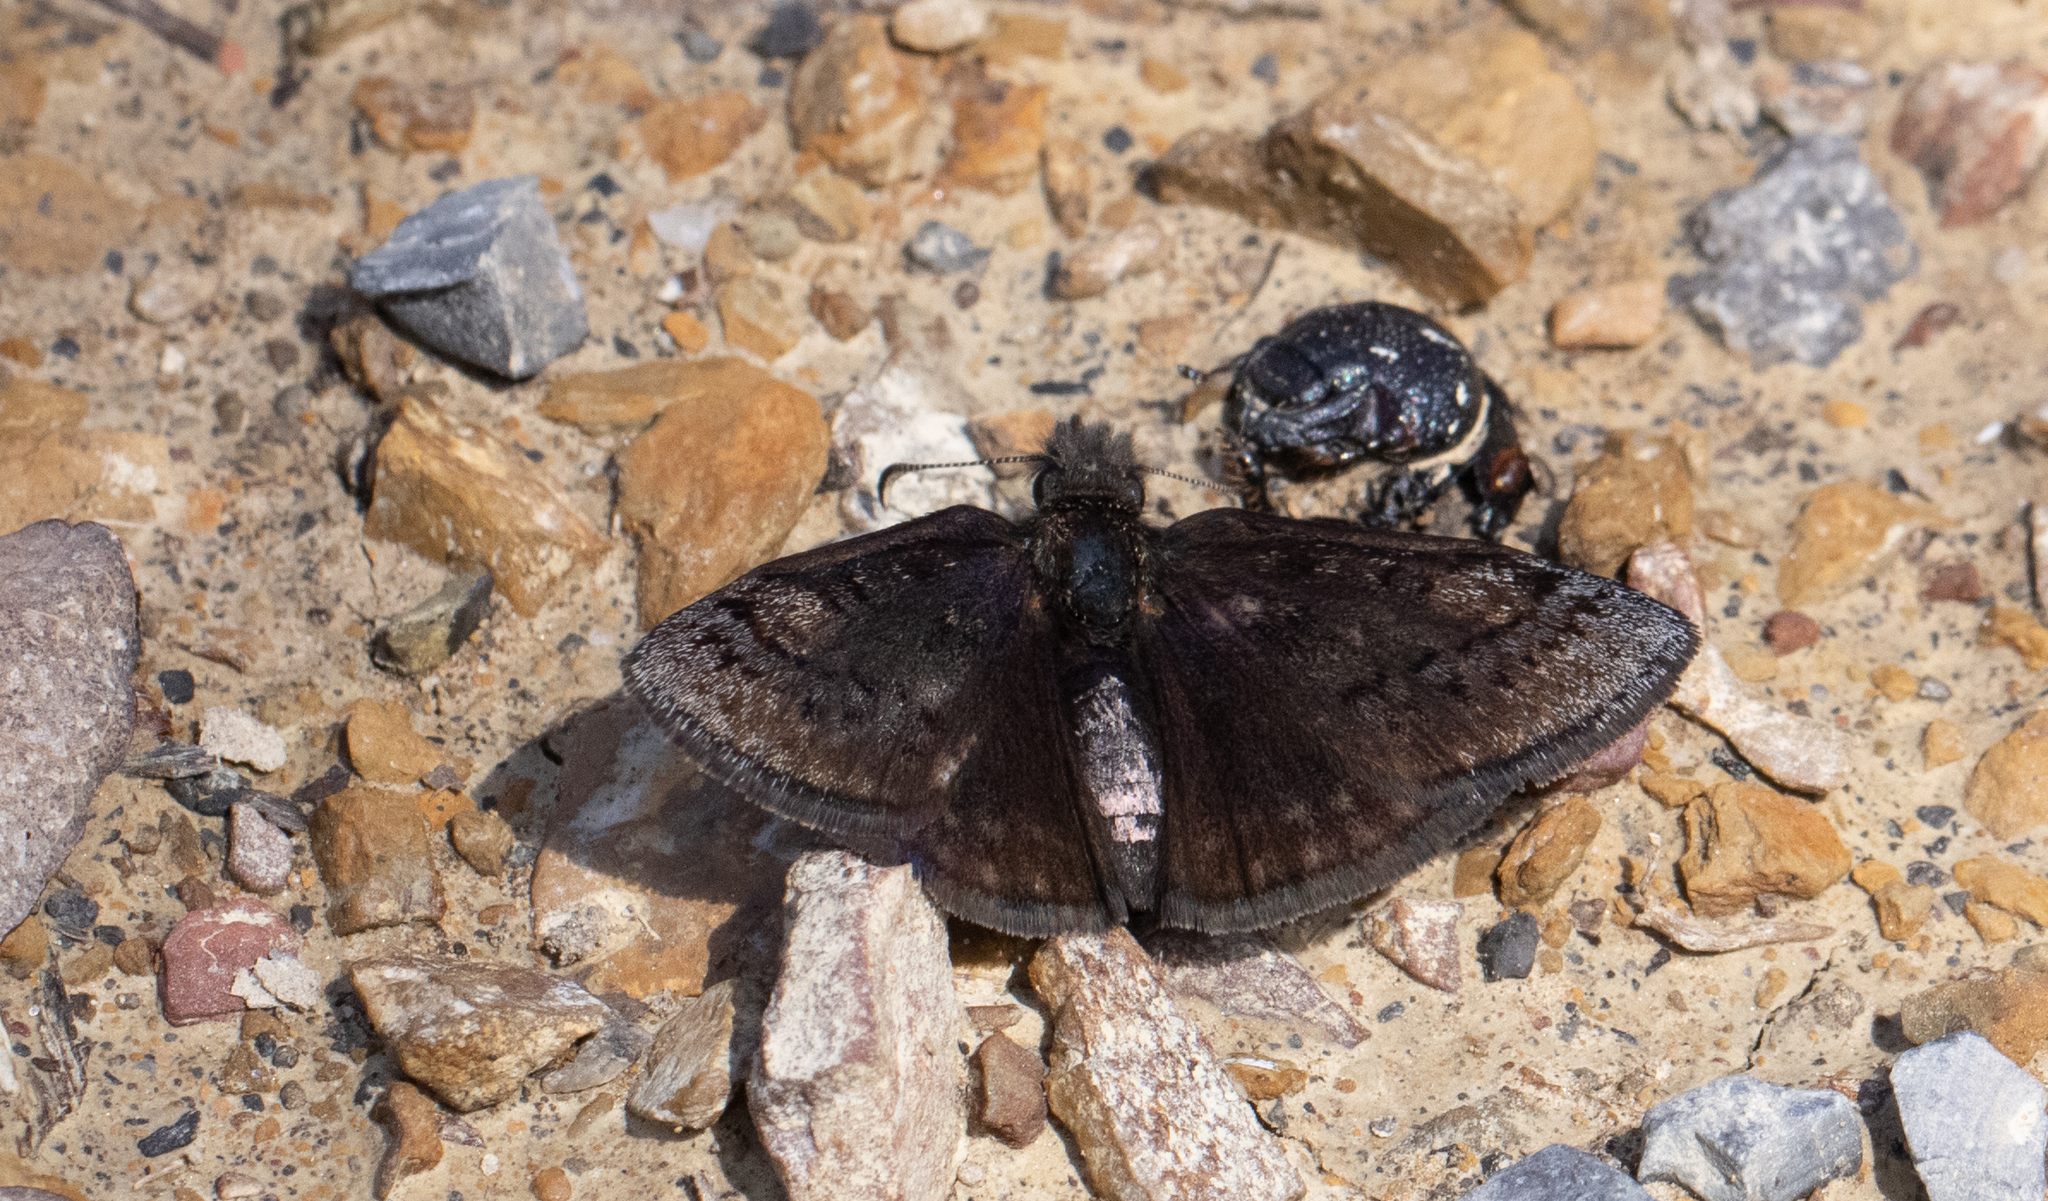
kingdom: Animalia
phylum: Arthropoda
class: Insecta
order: Lepidoptera
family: Hesperiidae
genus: Erynnis
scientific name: Erynnis brizo
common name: Sleepy duskywing
